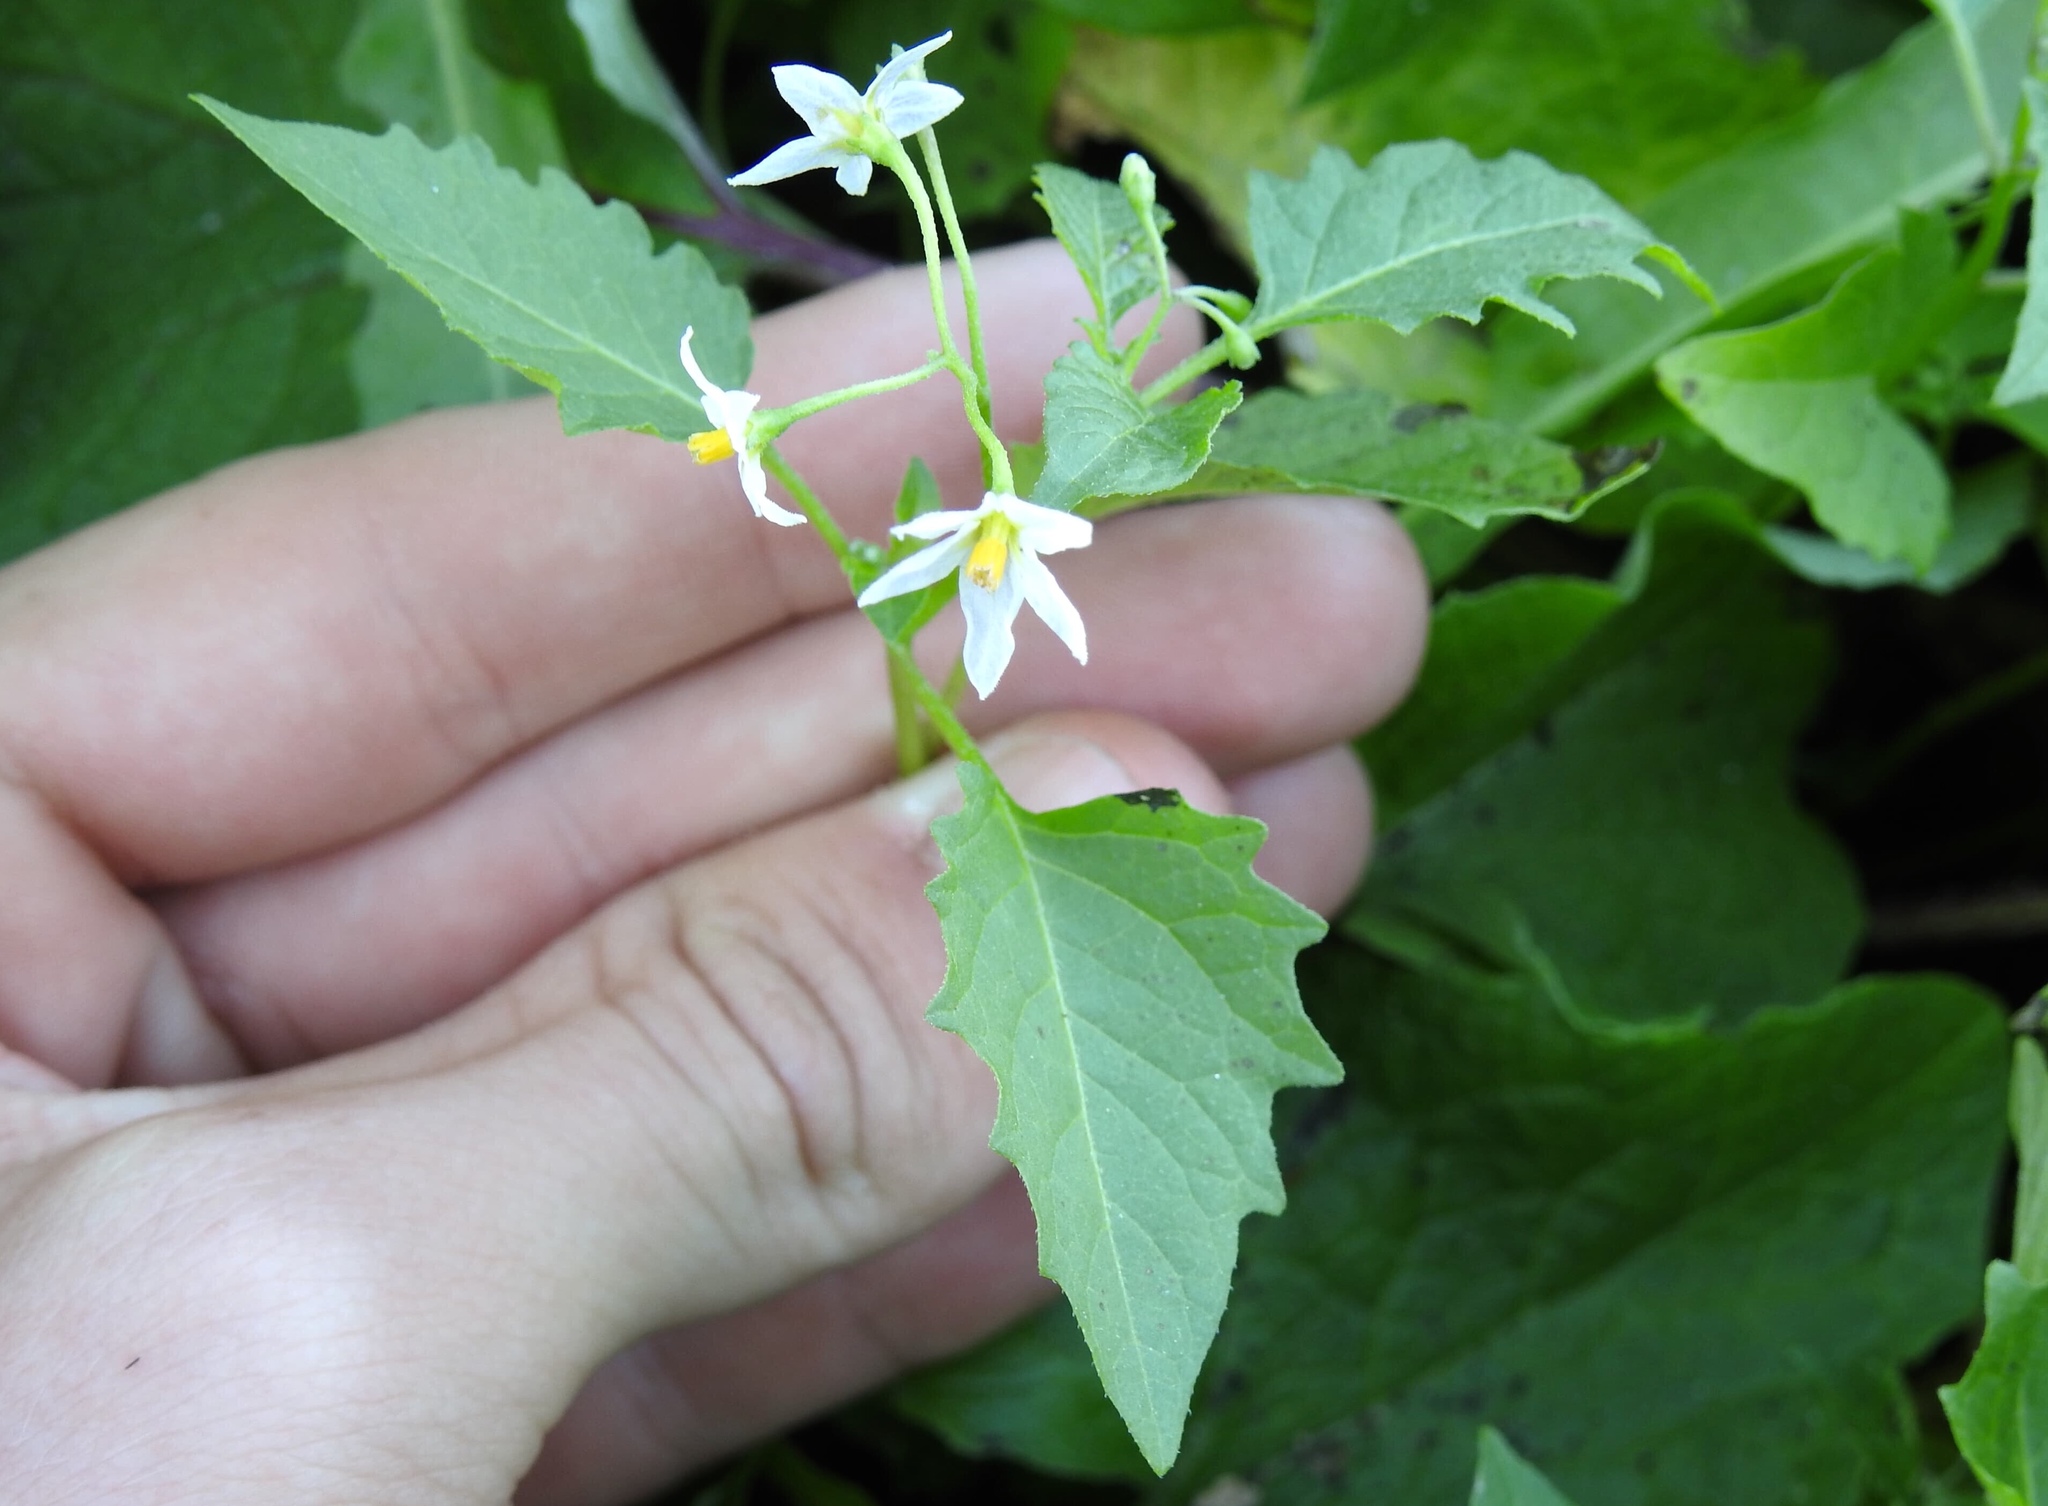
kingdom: Plantae
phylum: Tracheophyta
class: Magnoliopsida
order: Solanales
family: Solanaceae
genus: Solanum
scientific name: Solanum emulans
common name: Eastern black nightshade
